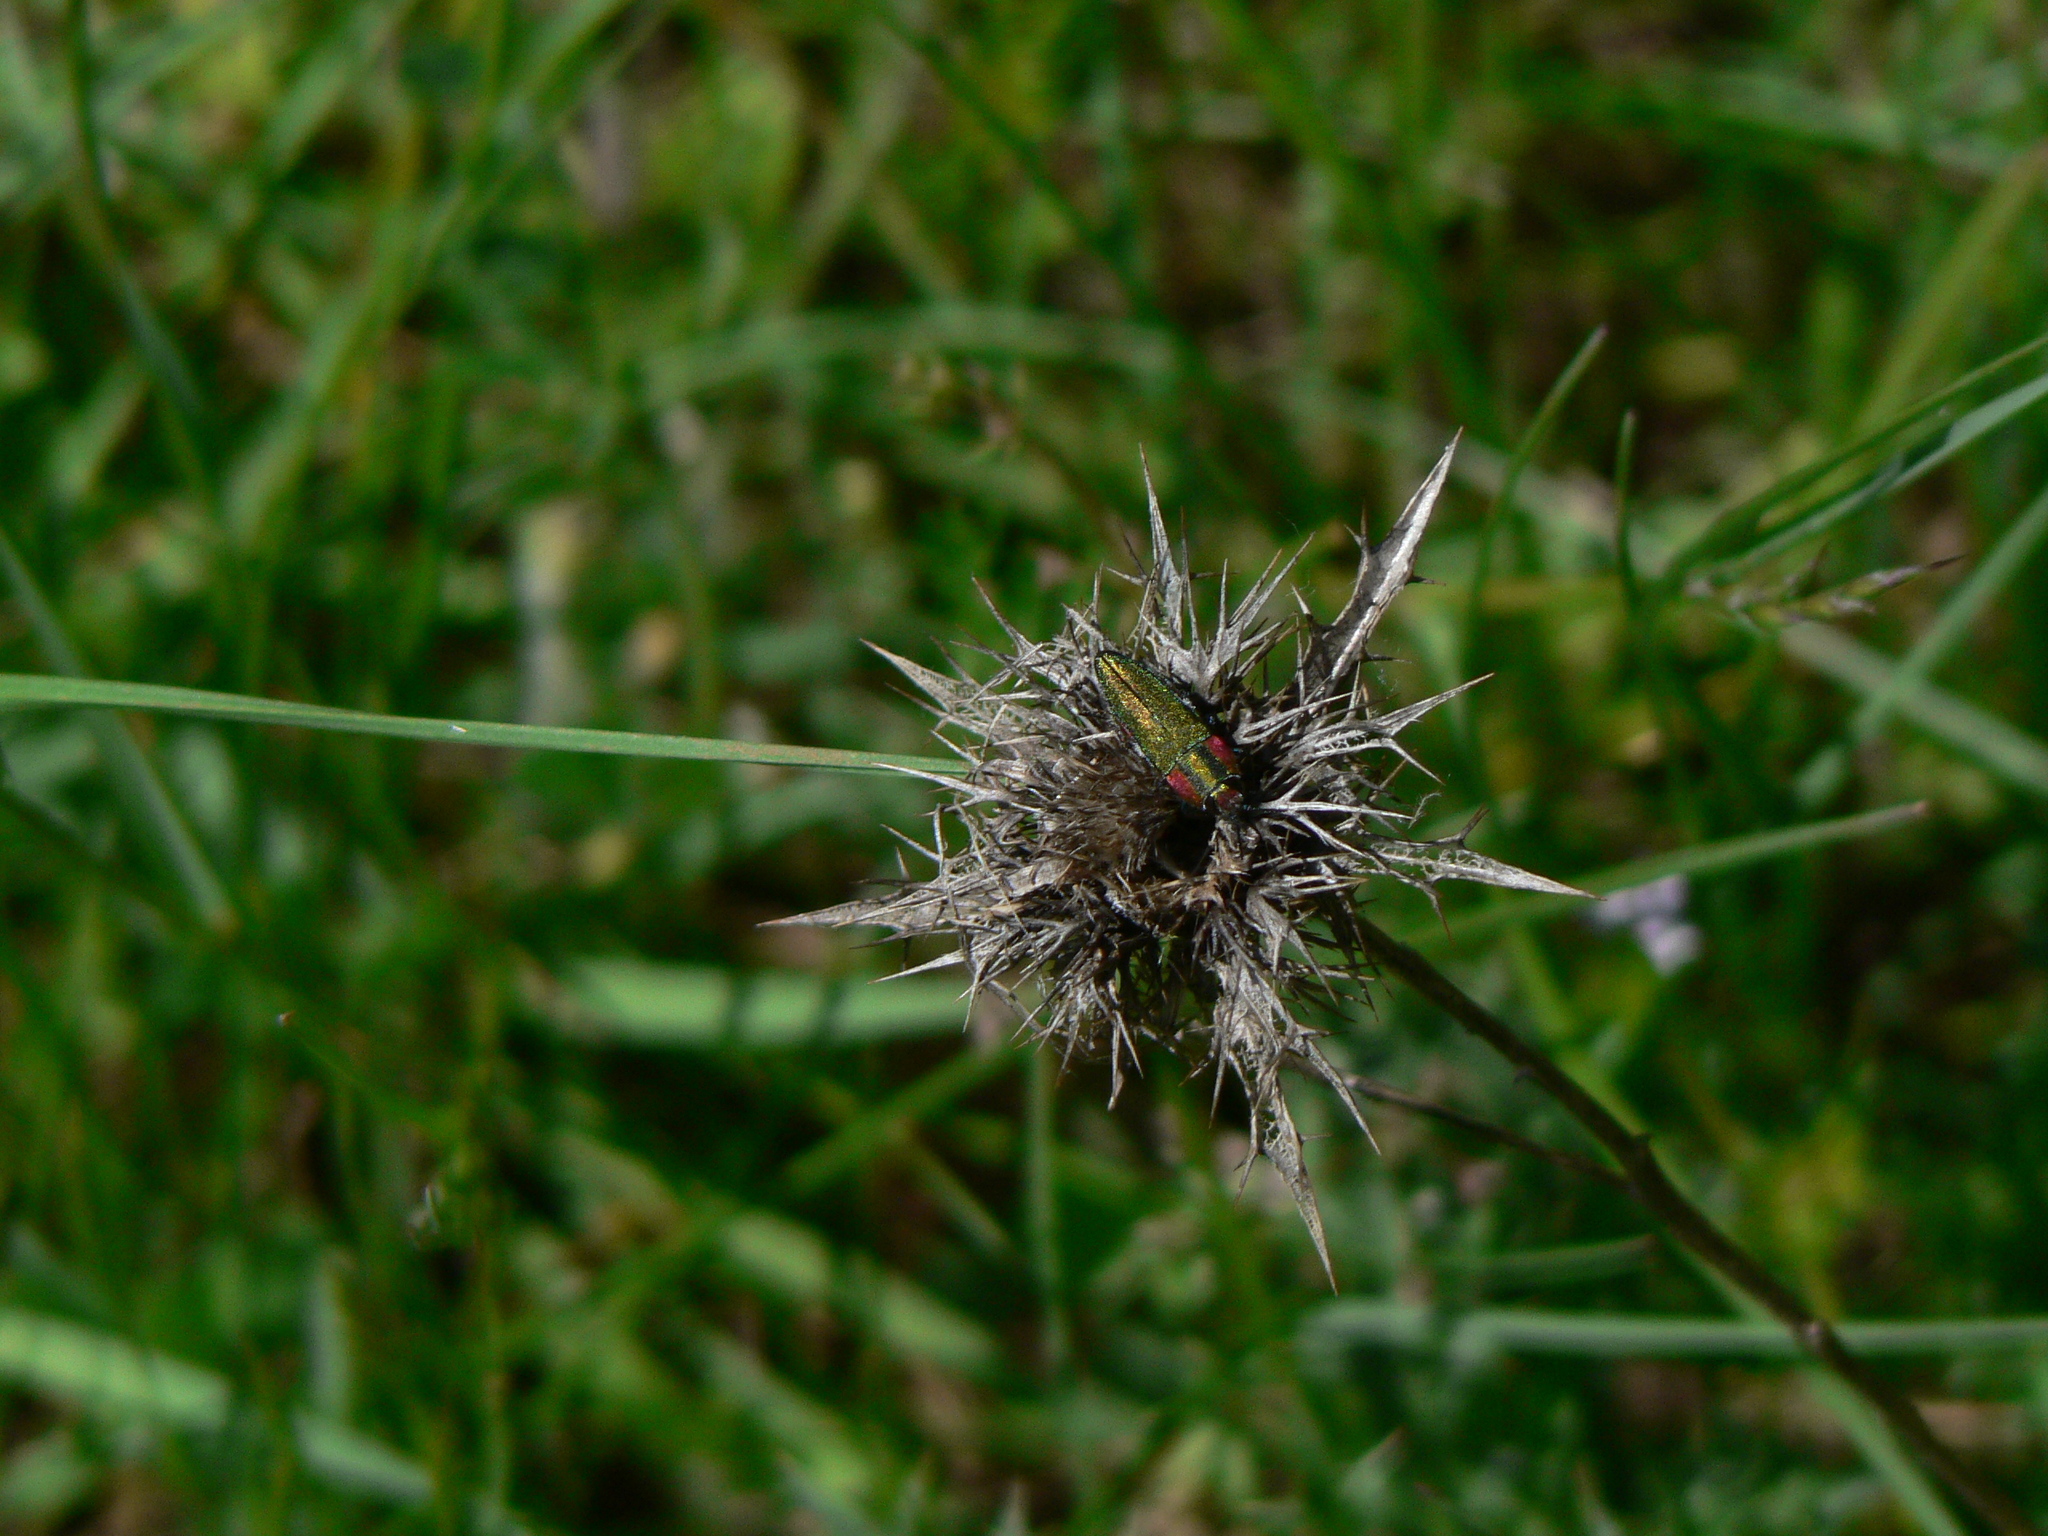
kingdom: Animalia
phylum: Arthropoda
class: Insecta
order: Coleoptera
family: Buprestidae
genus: Anthaxia
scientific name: Anthaxia hungarica
